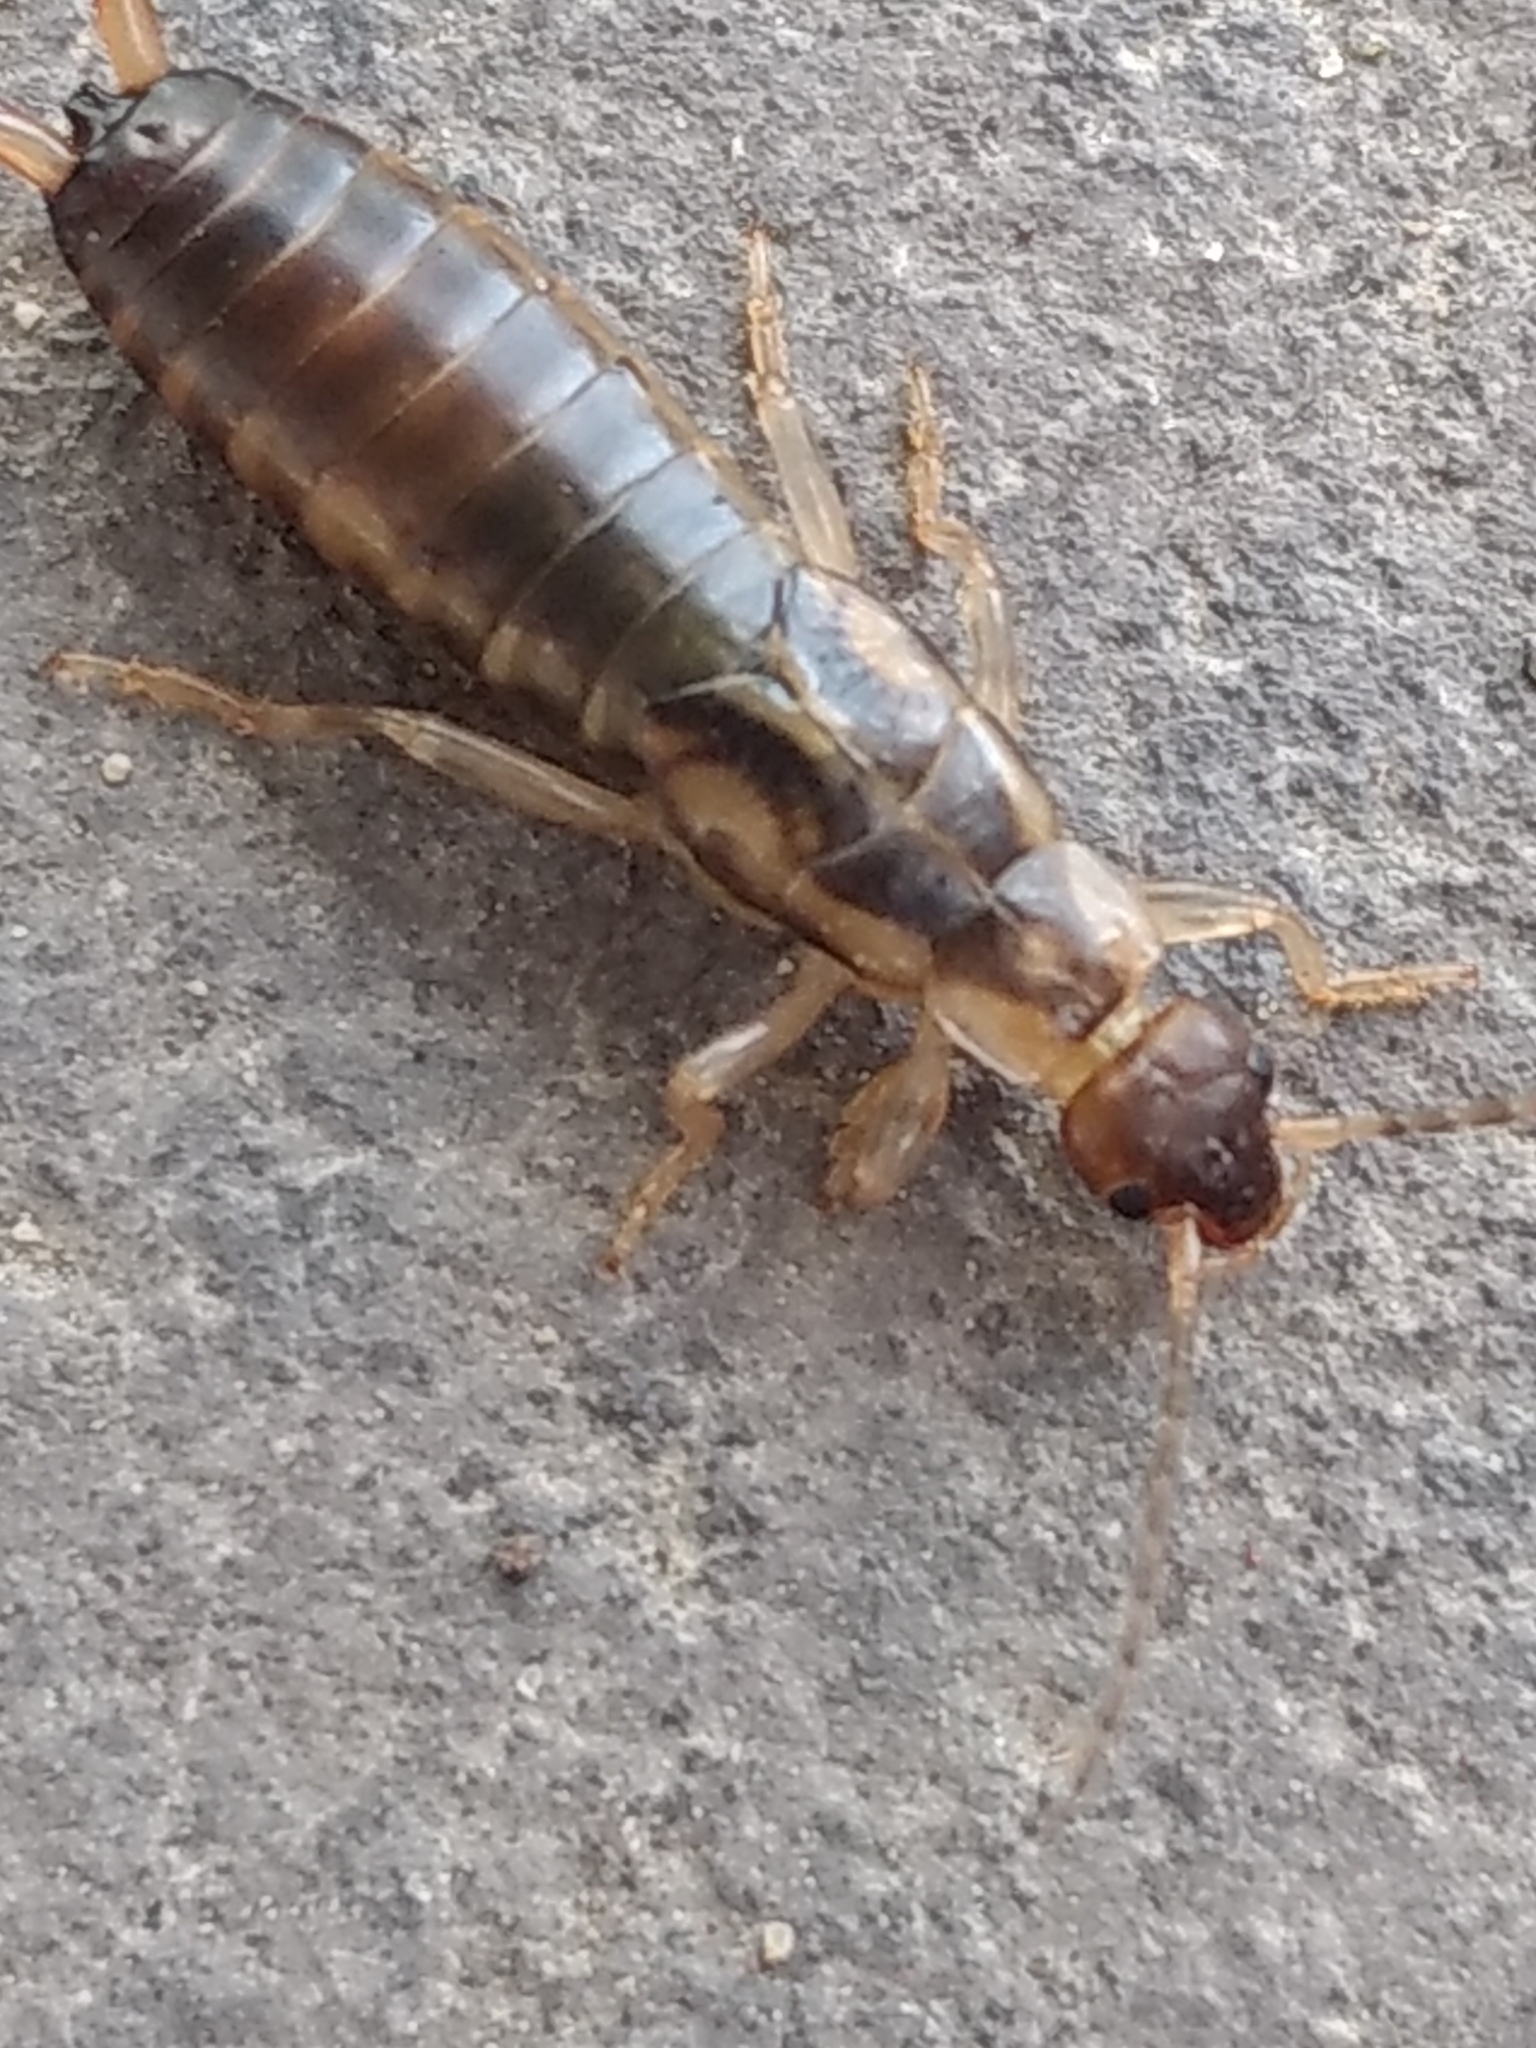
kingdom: Animalia
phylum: Arthropoda
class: Insecta
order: Dermaptera
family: Forficulidae
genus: Forficula
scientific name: Forficula
